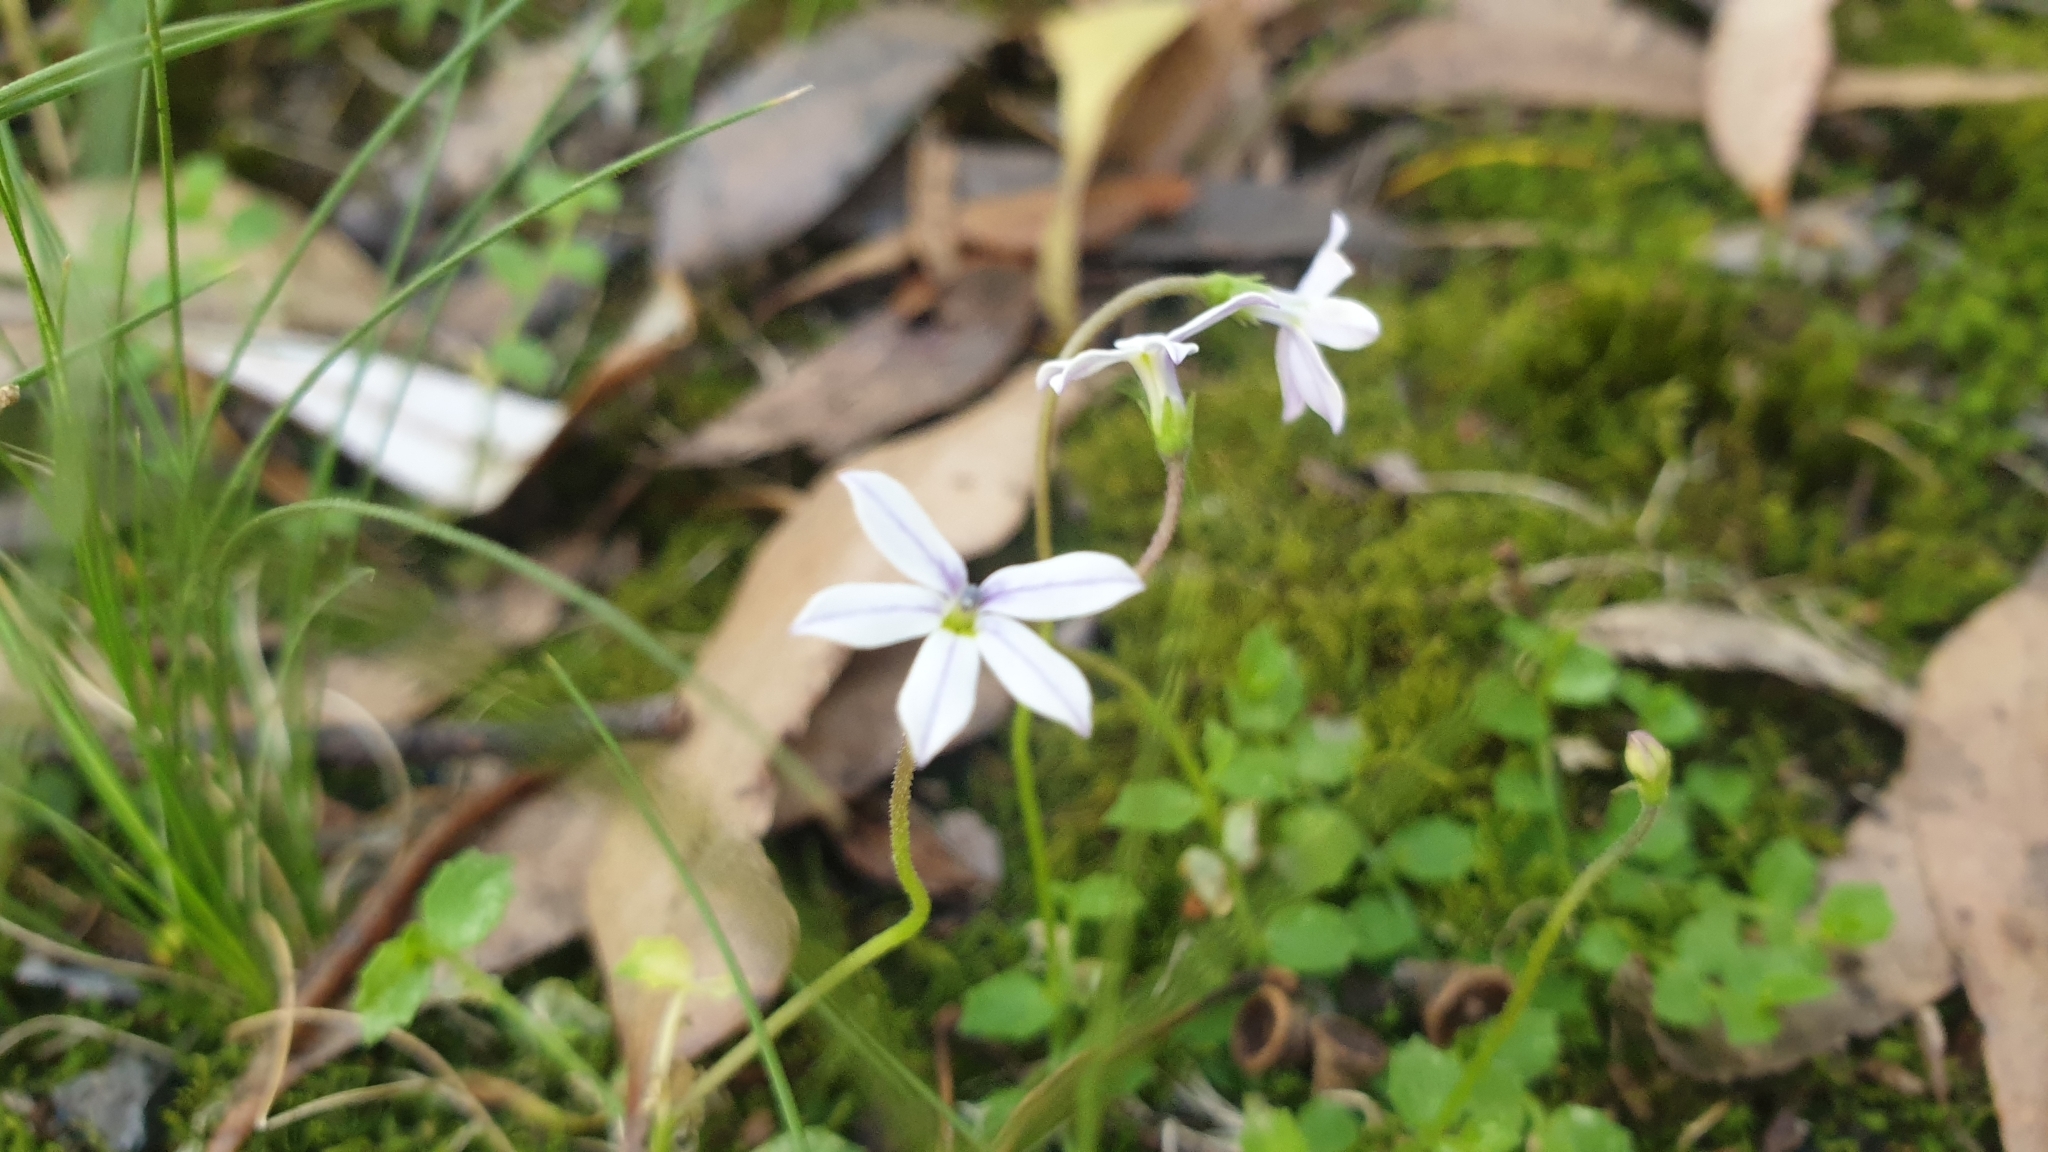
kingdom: Plantae
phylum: Tracheophyta
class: Magnoliopsida
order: Asterales
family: Campanulaceae
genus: Lobelia
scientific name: Lobelia pedunculata
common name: Matted pratia
